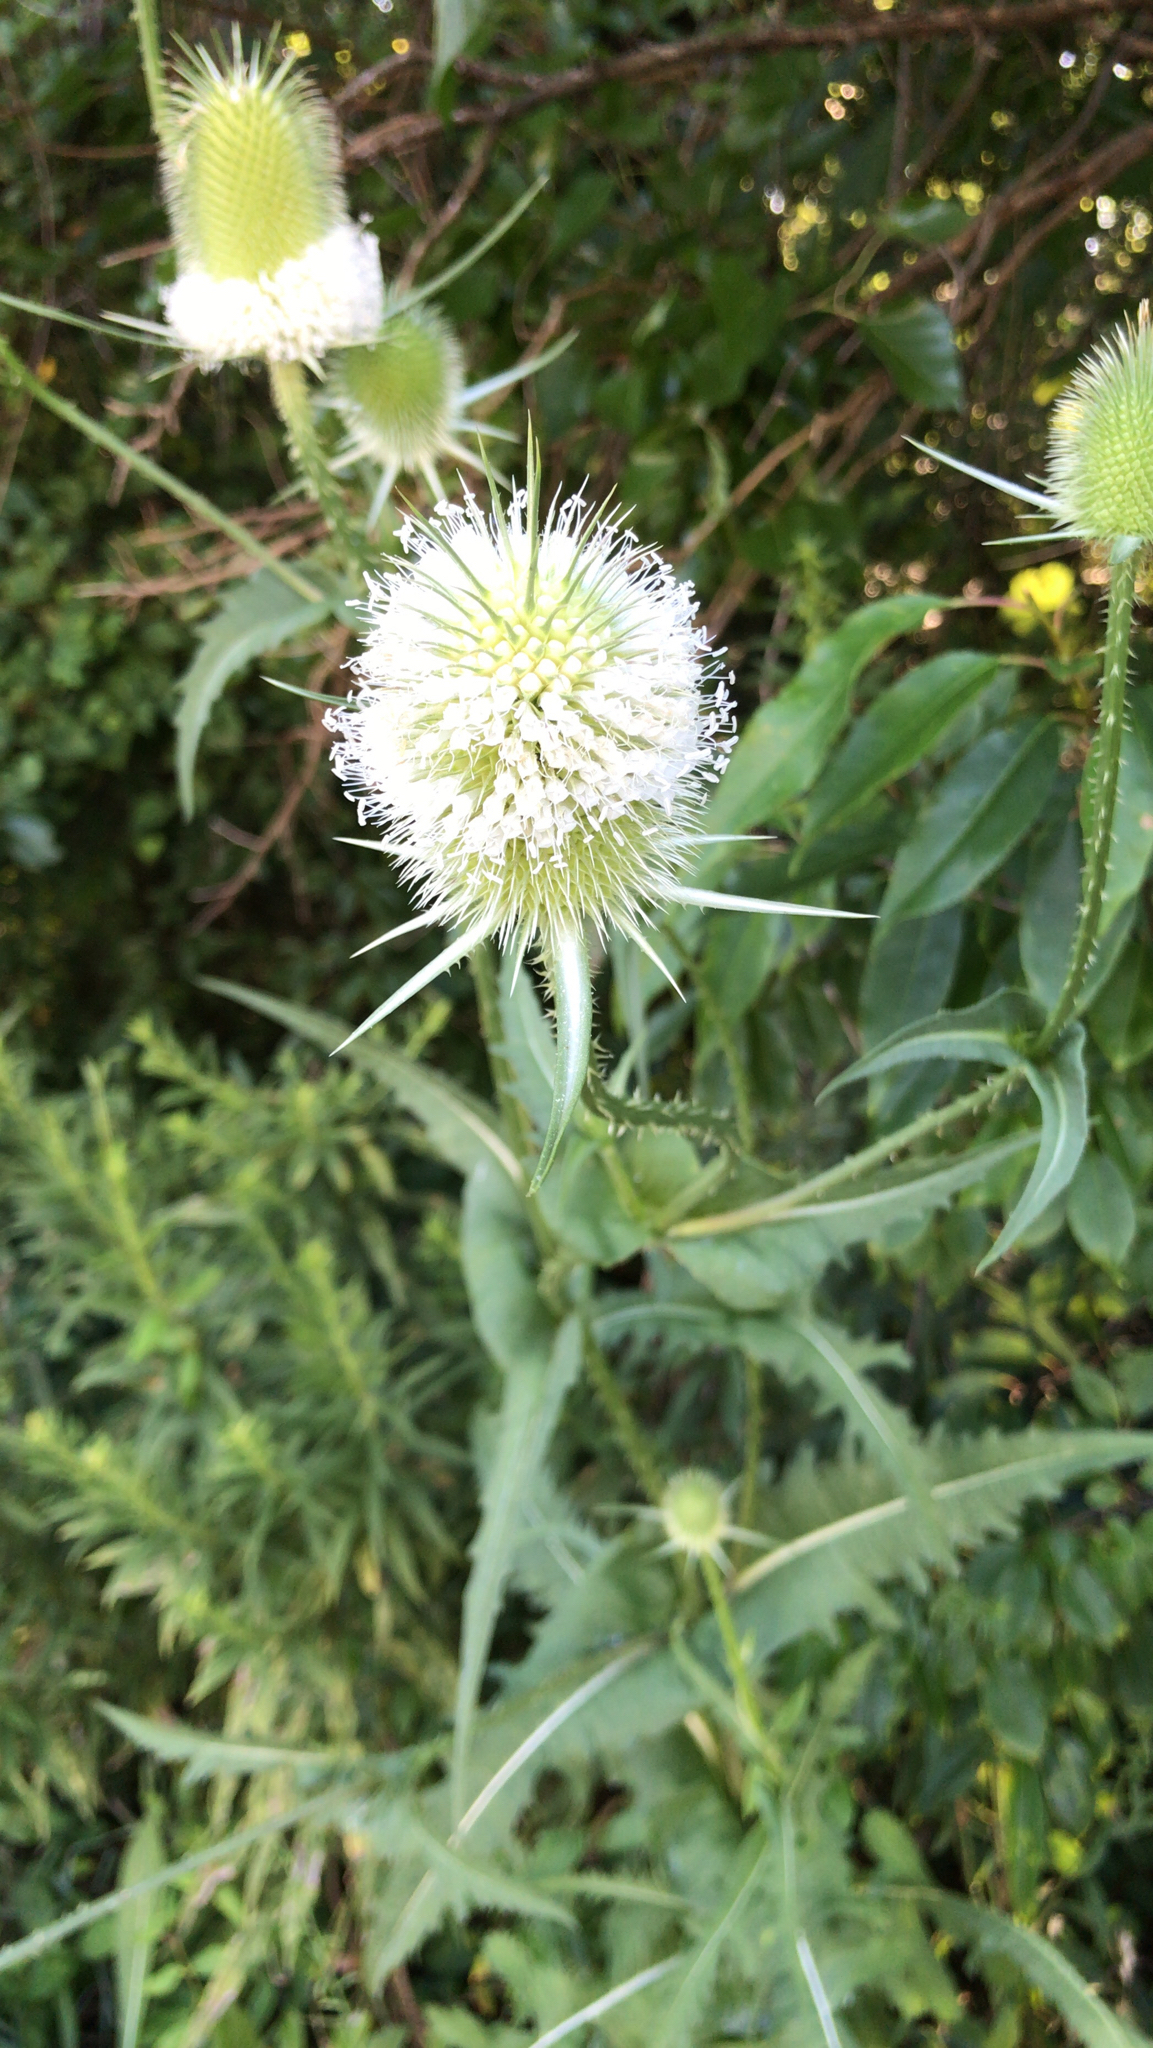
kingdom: Plantae
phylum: Tracheophyta
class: Magnoliopsida
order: Dipsacales
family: Caprifoliaceae
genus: Dipsacus
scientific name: Dipsacus laciniatus
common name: Cut-leaved teasel
